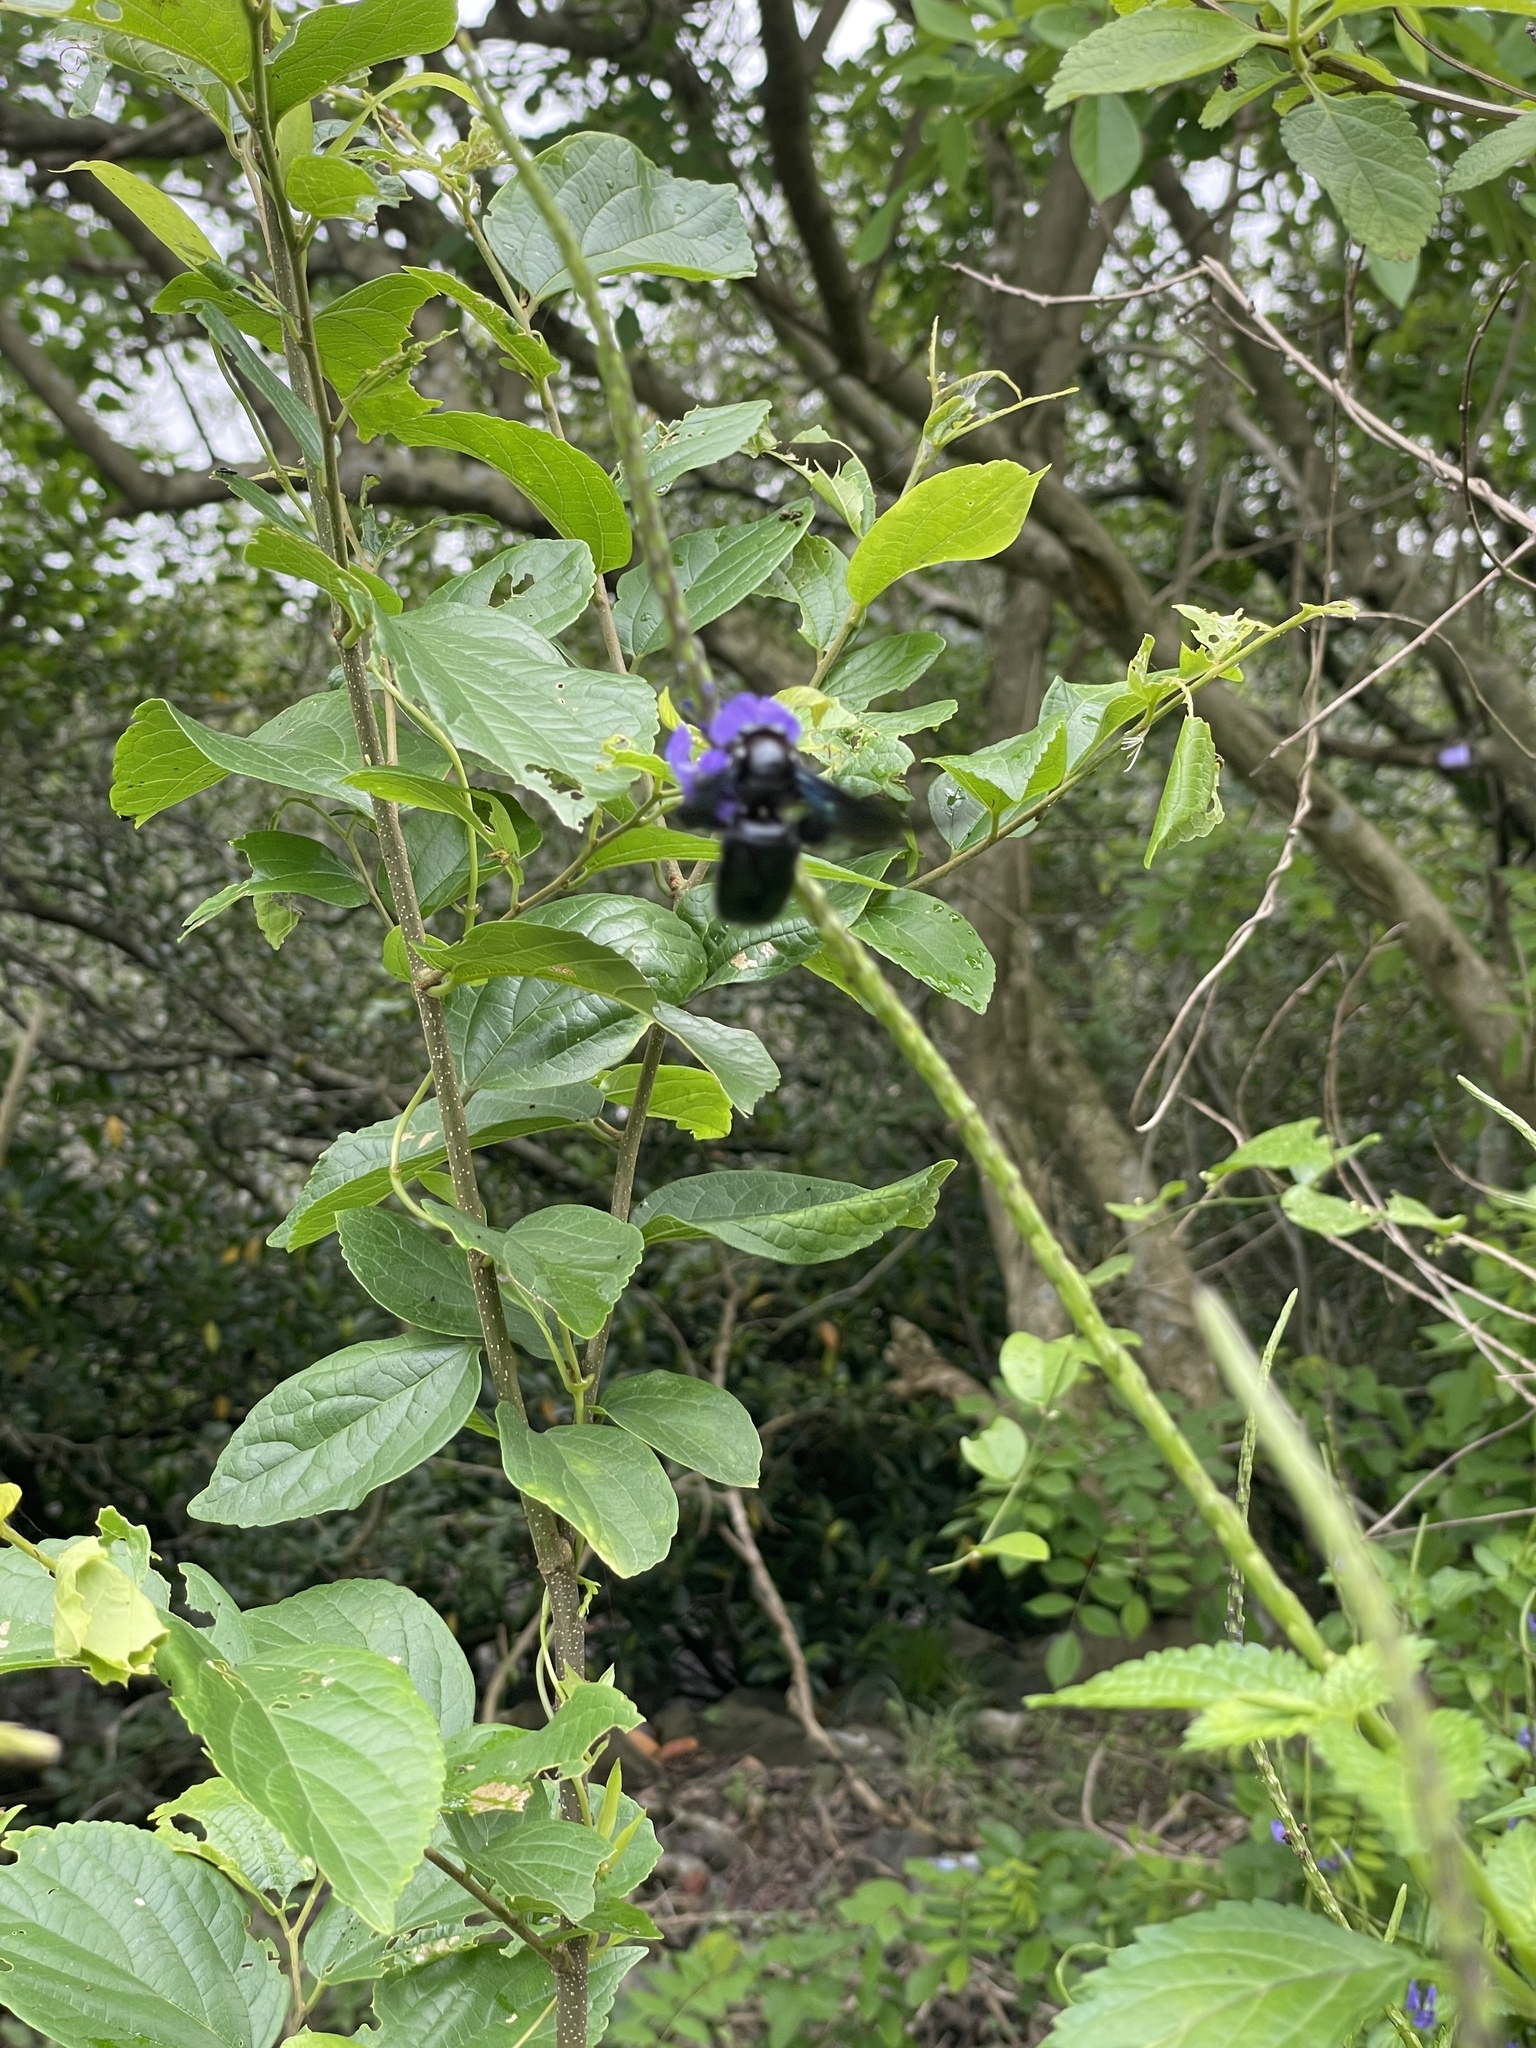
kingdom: Animalia
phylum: Arthropoda
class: Insecta
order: Hymenoptera
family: Apidae
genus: Xylocopa
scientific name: Xylocopa nasalis
